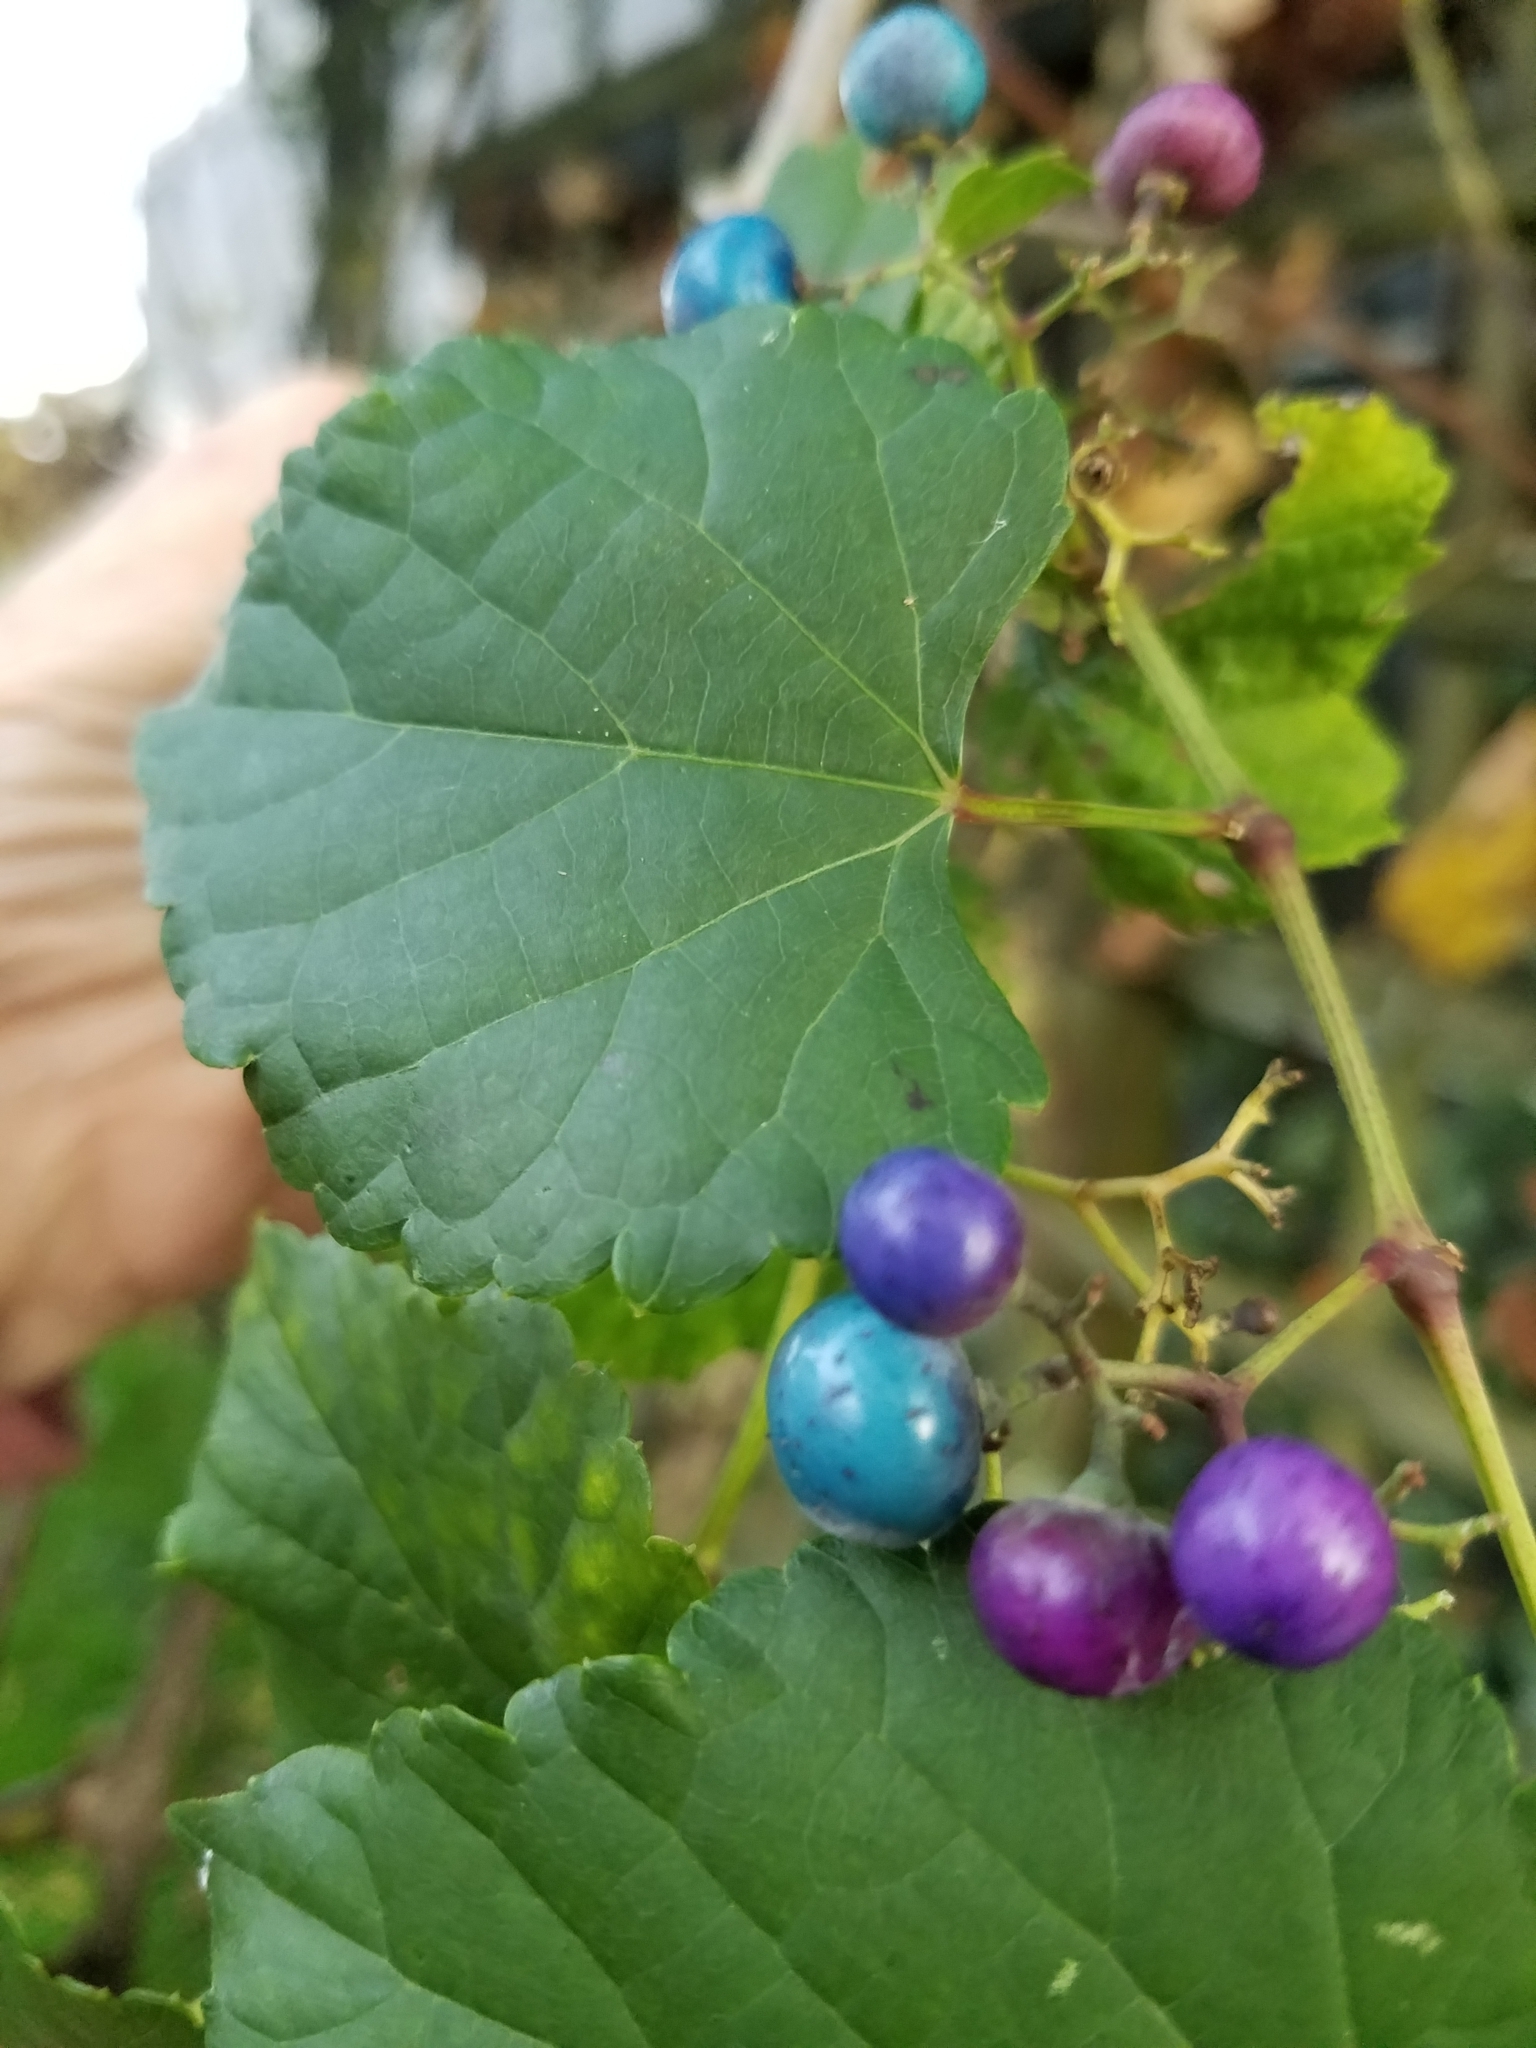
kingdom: Plantae
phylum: Tracheophyta
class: Magnoliopsida
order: Vitales
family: Vitaceae
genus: Ampelopsis
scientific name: Ampelopsis glandulosa
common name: Amur peppervine
